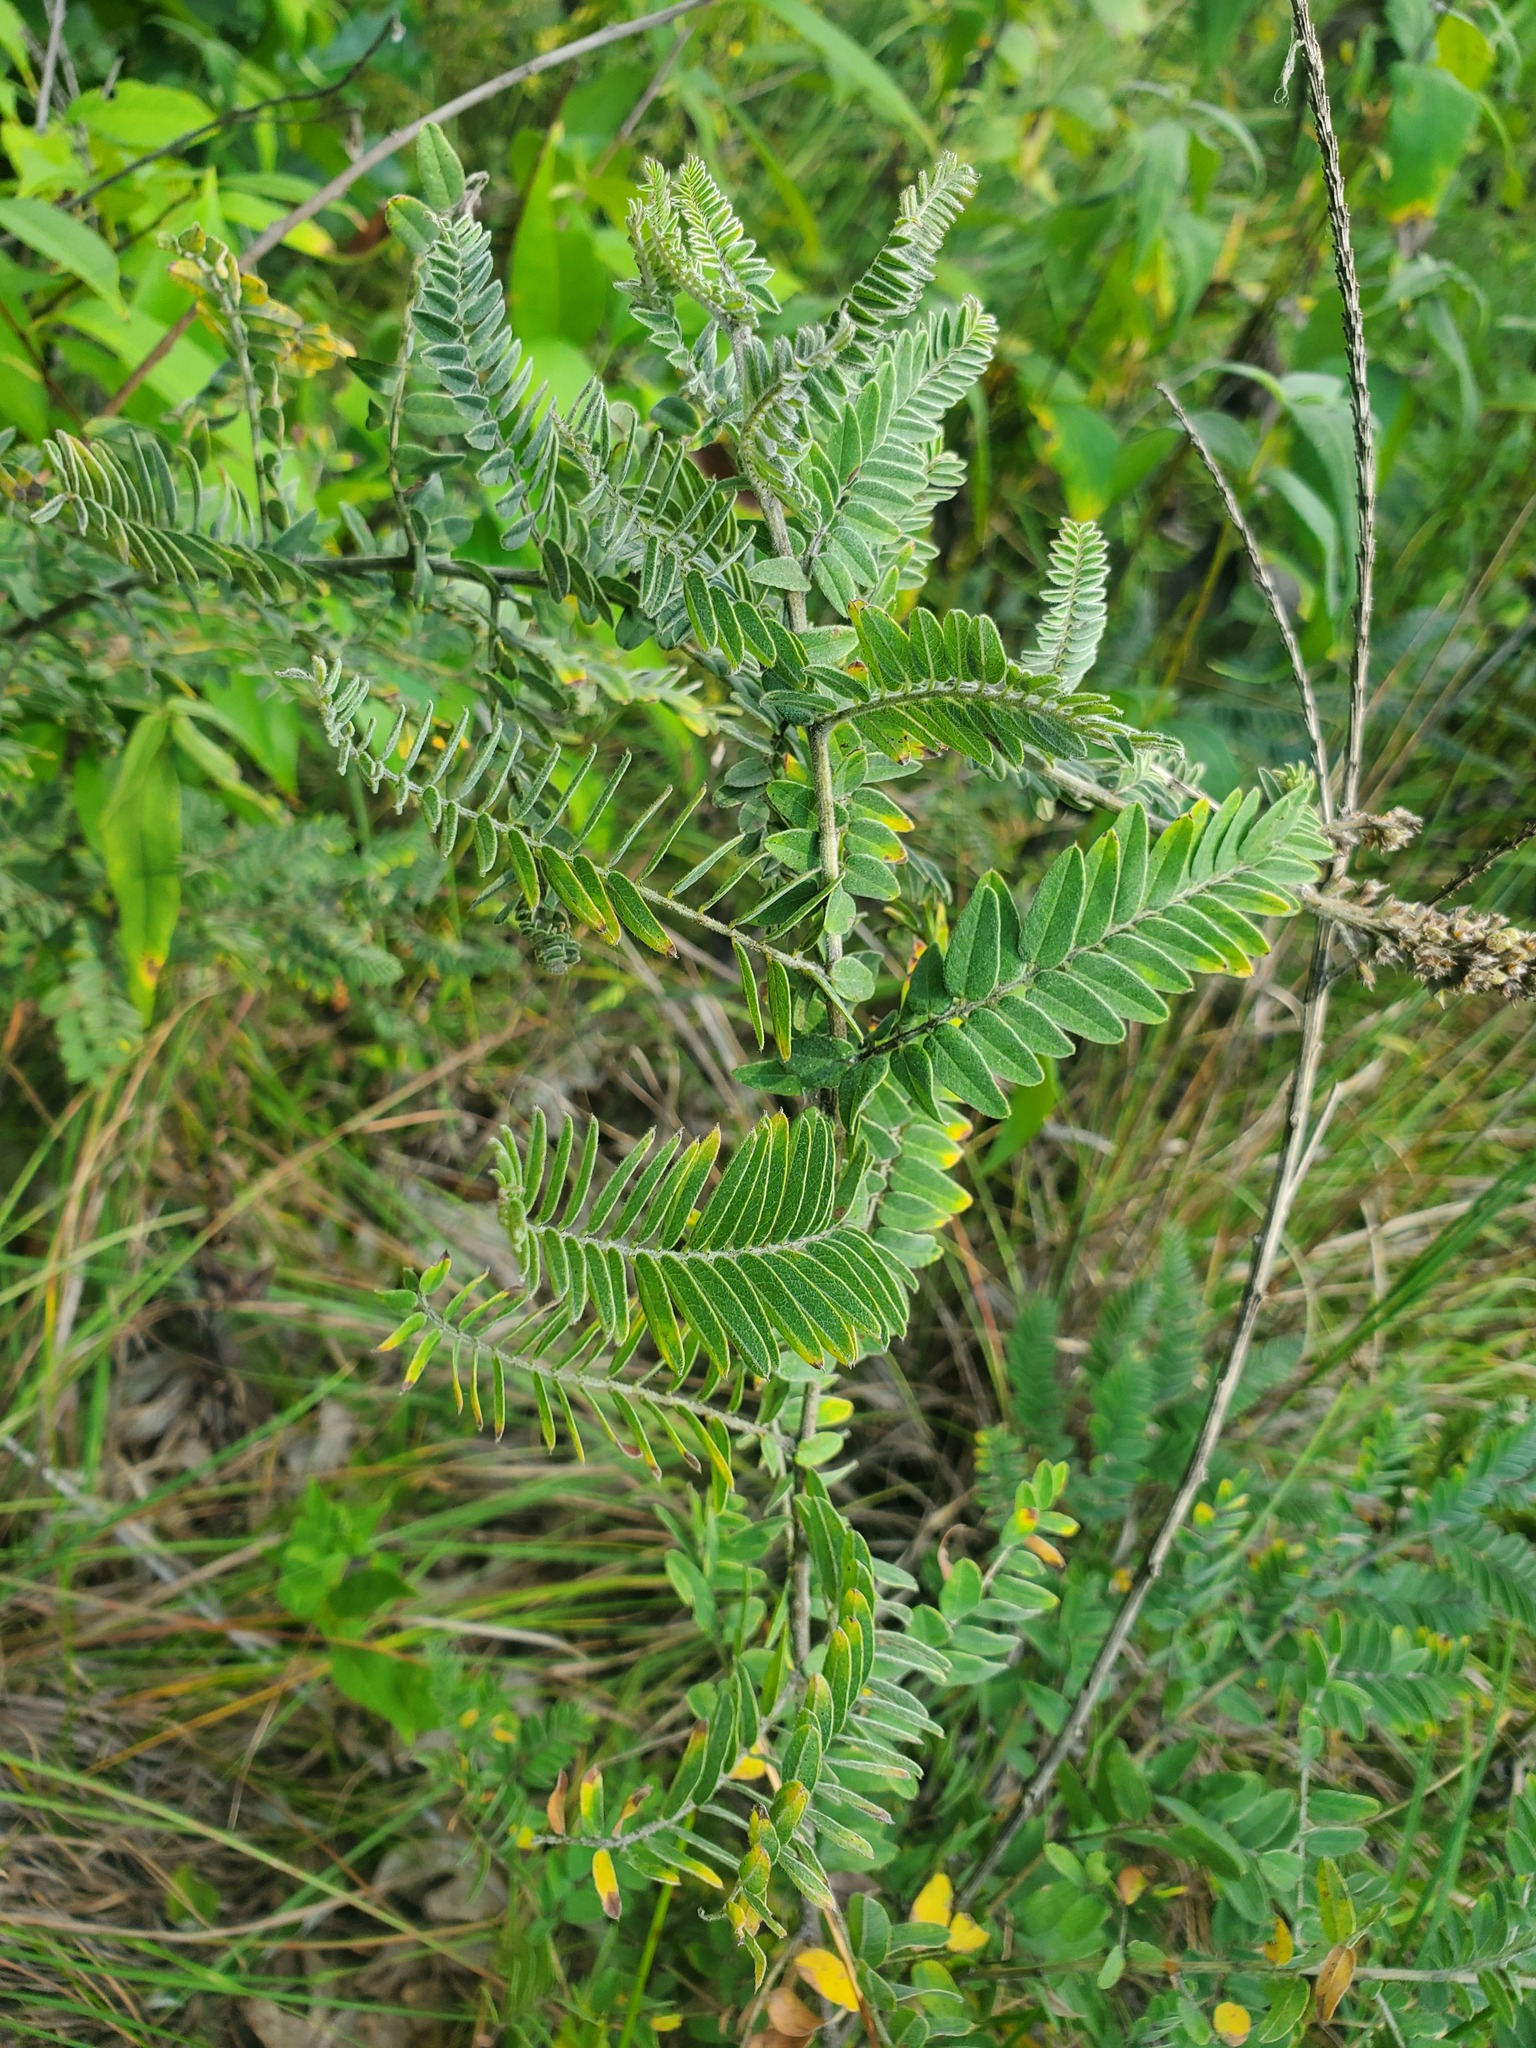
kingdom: Plantae
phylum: Tracheophyta
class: Magnoliopsida
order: Fabales
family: Fabaceae
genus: Amorpha
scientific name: Amorpha canescens
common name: Leadplant
